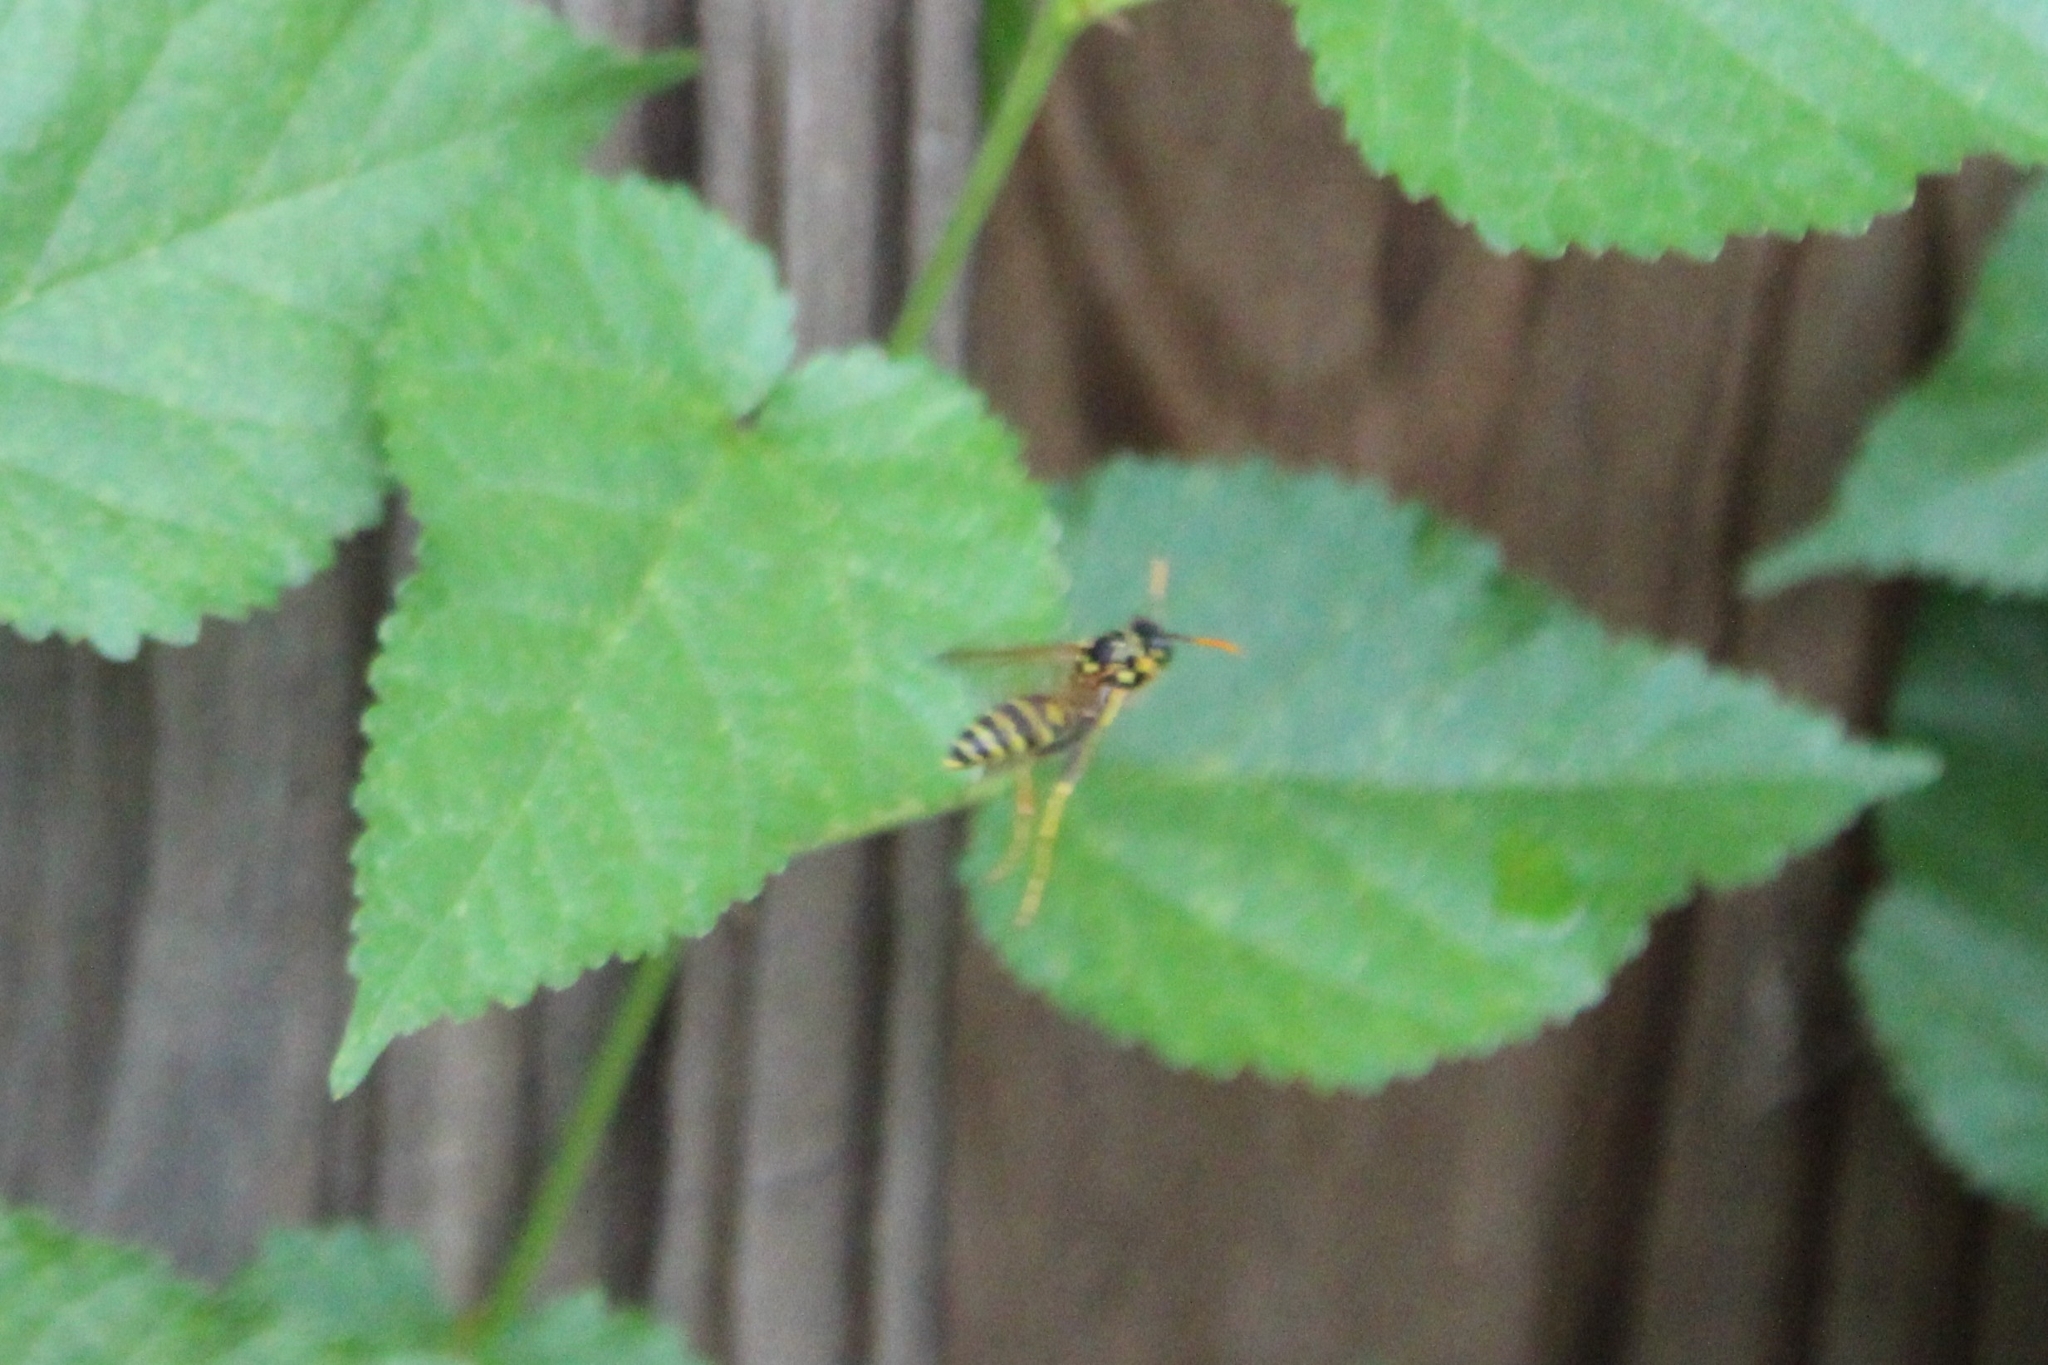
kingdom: Animalia
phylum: Arthropoda
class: Insecta
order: Hymenoptera
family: Eumenidae
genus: Polistes
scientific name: Polistes dominula
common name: Paper wasp
